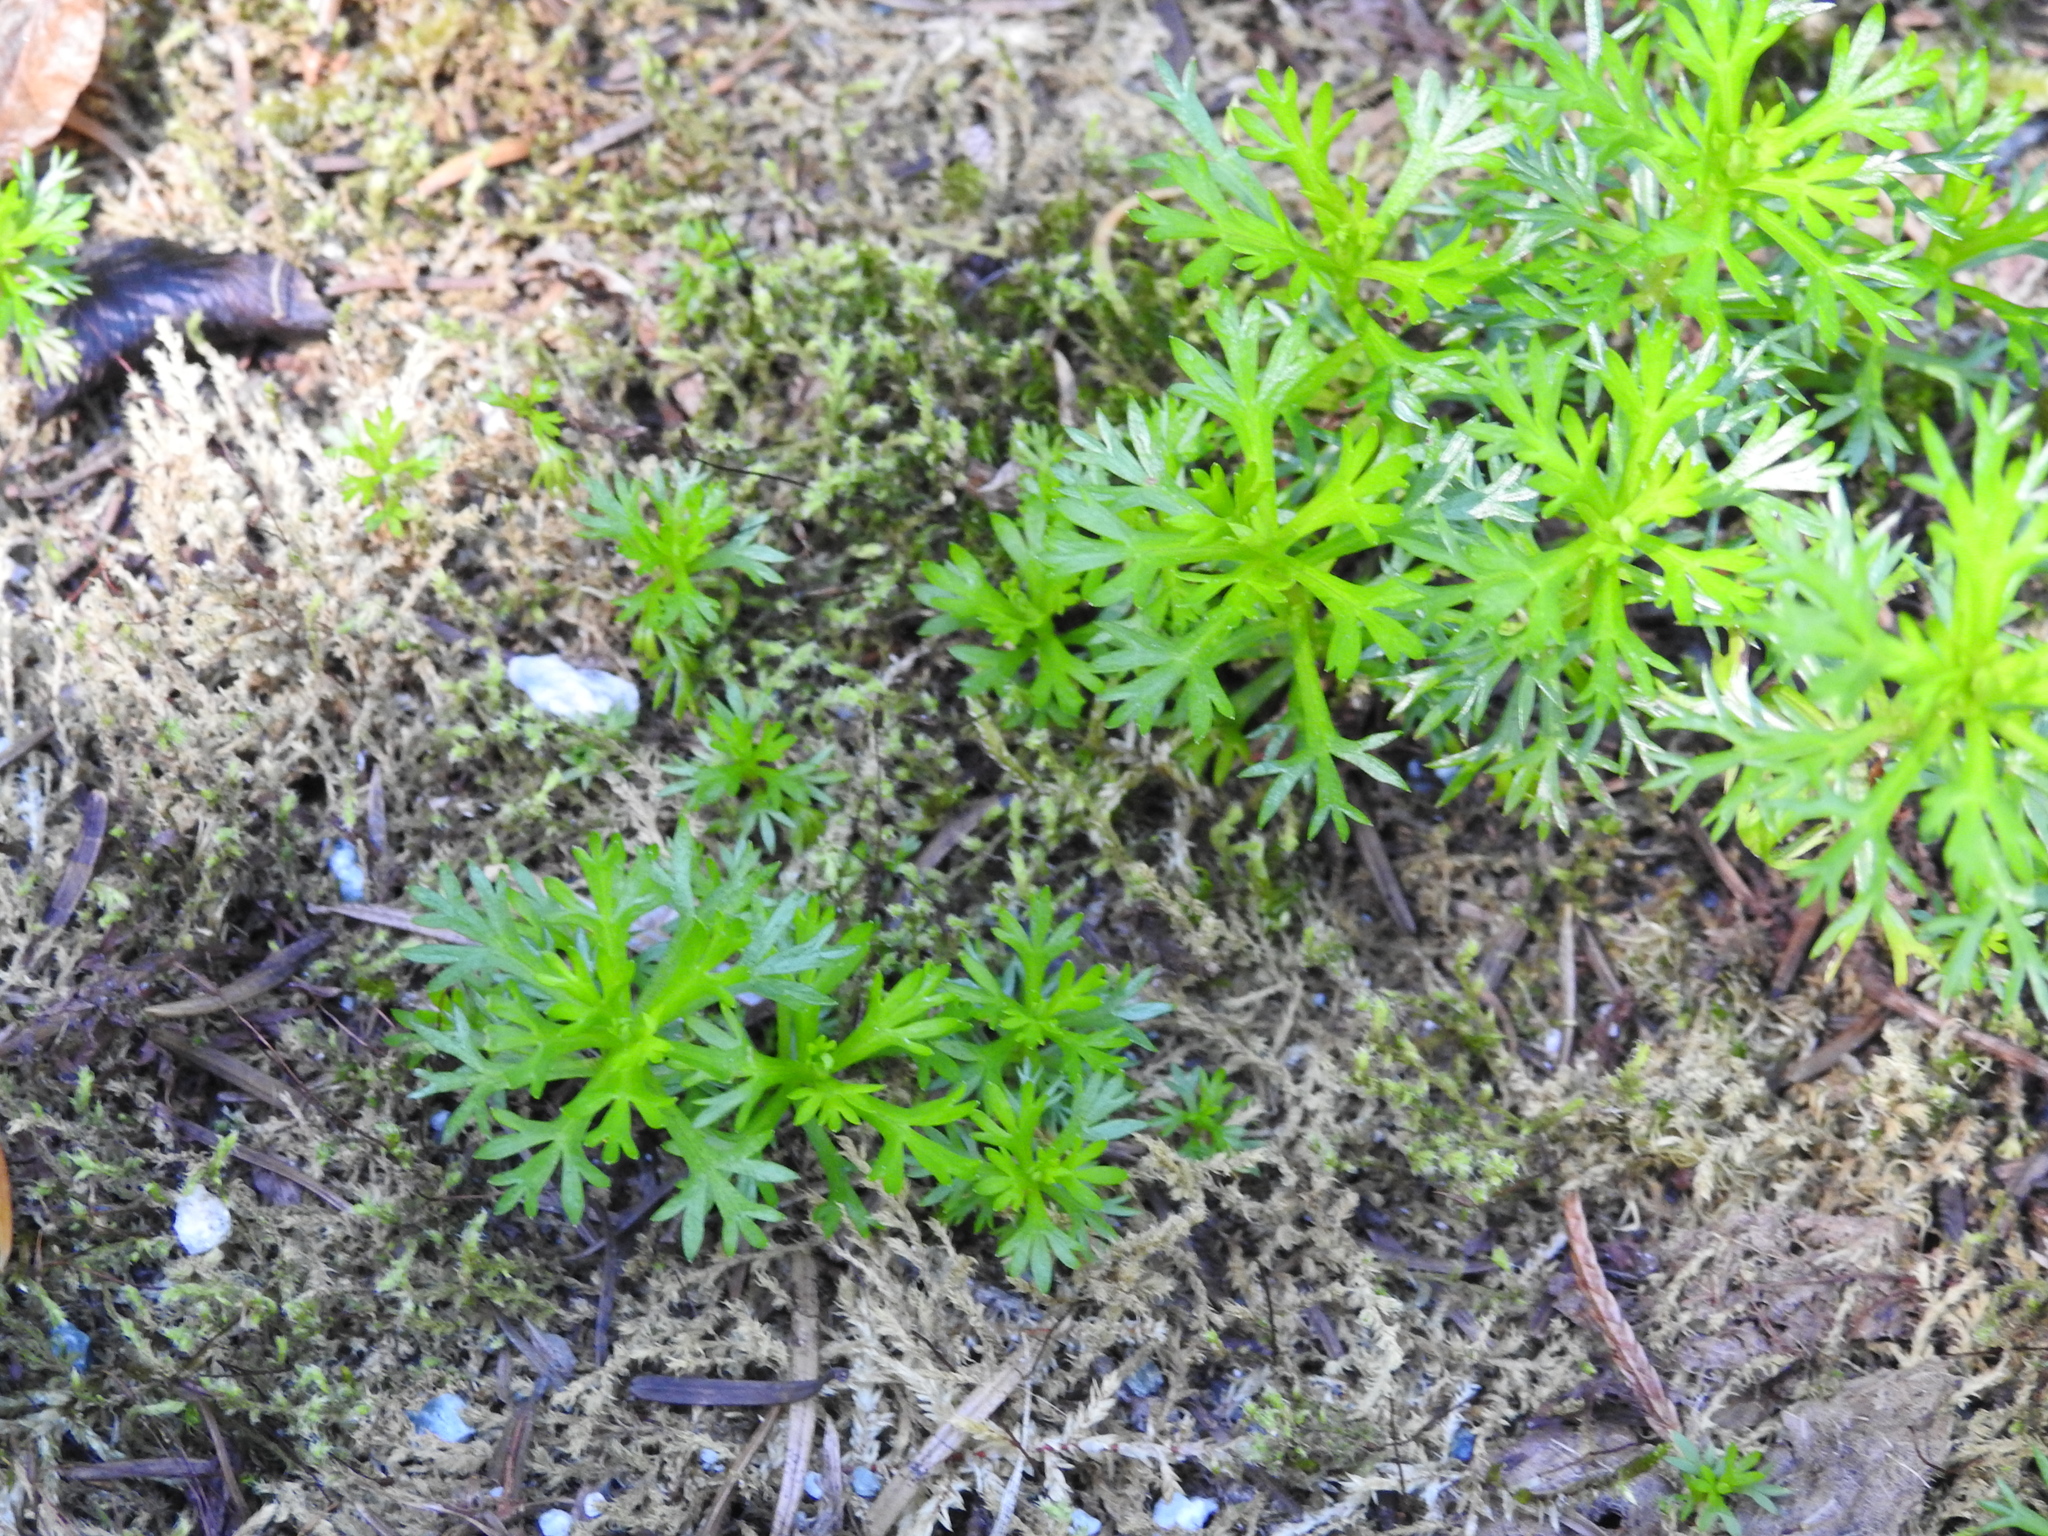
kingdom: Plantae
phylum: Tracheophyta
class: Magnoliopsida
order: Rosales
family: Rosaceae
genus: Luetkea
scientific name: Luetkea pectinata
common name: Partridgefoot
